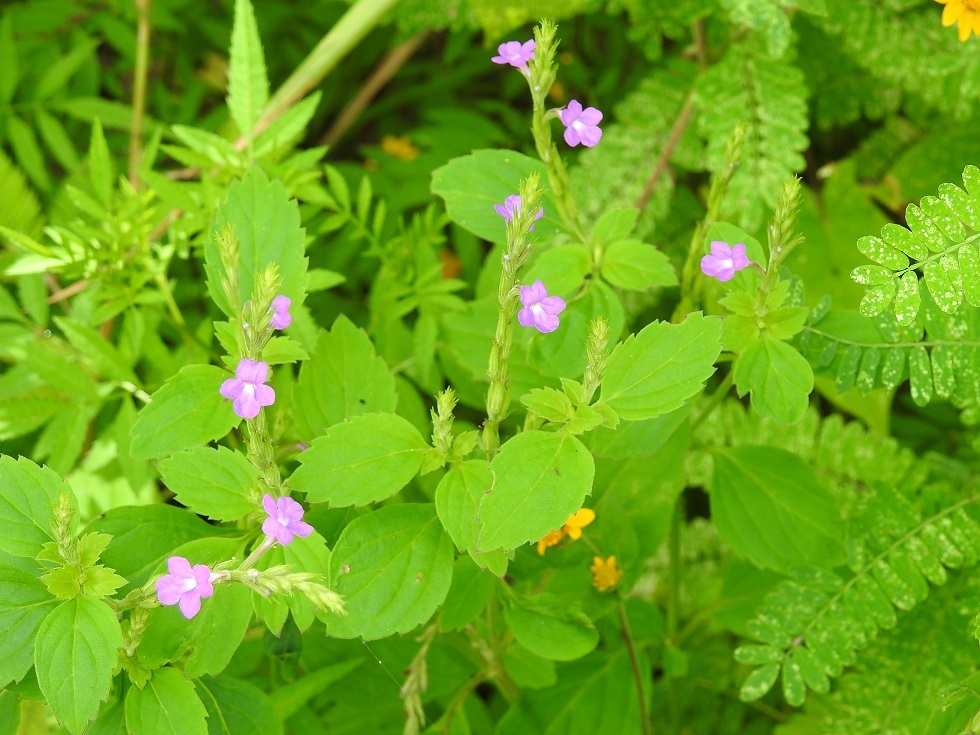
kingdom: Plantae
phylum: Tracheophyta
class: Magnoliopsida
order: Lamiales
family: Verbenaceae
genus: Bouchea
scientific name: Bouchea prismatica
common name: Vervine
